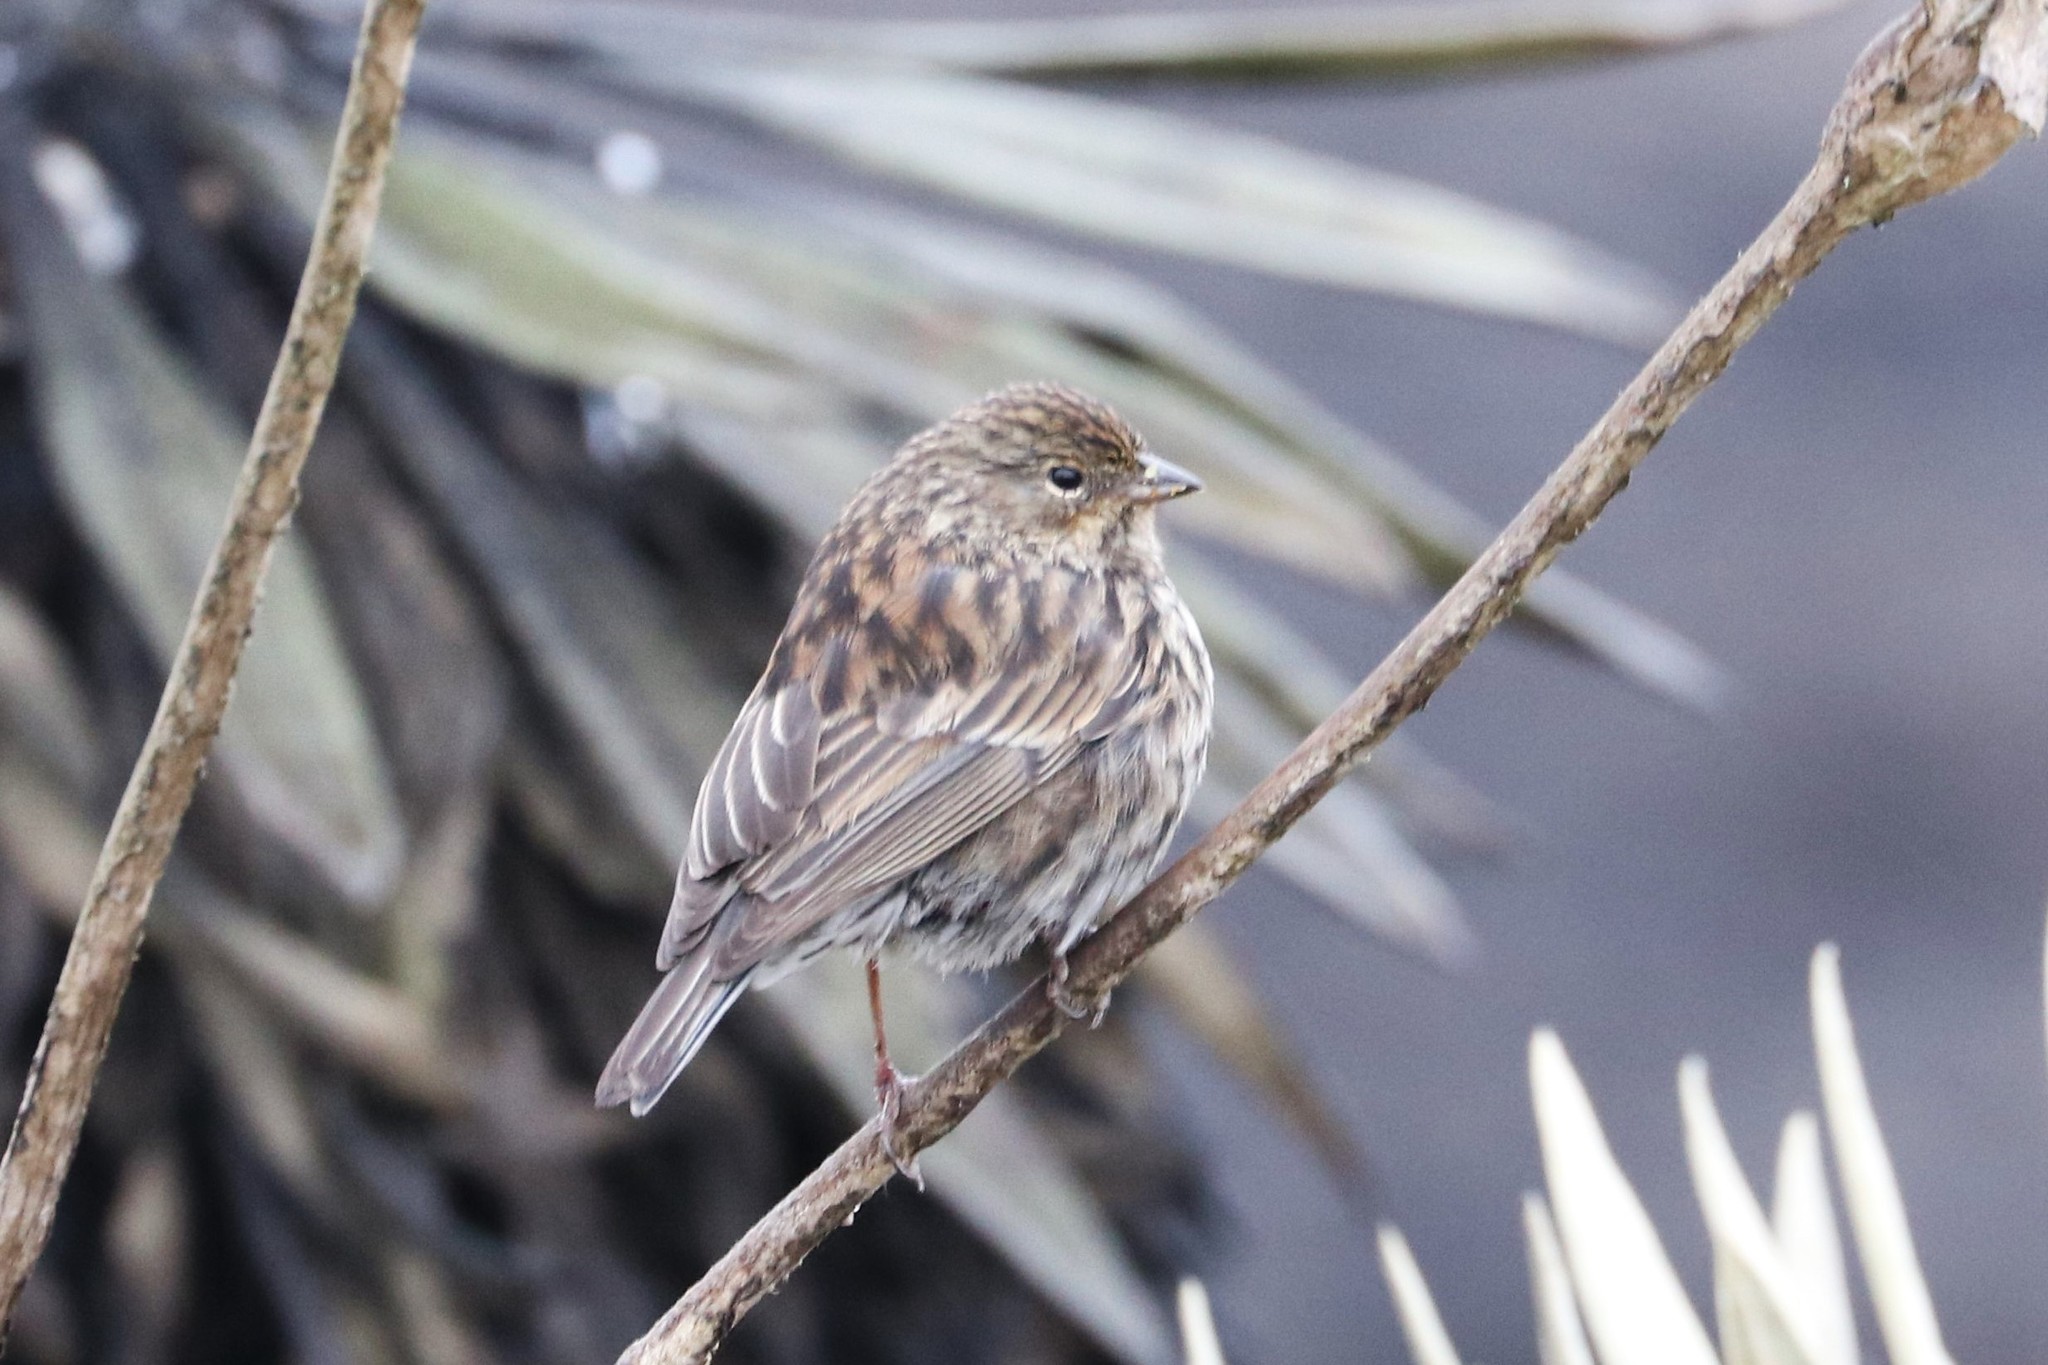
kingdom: Animalia
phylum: Chordata
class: Aves
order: Passeriformes
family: Thraupidae
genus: Geospizopsis
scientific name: Geospizopsis unicolor
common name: Plumbeous sierra-finch
